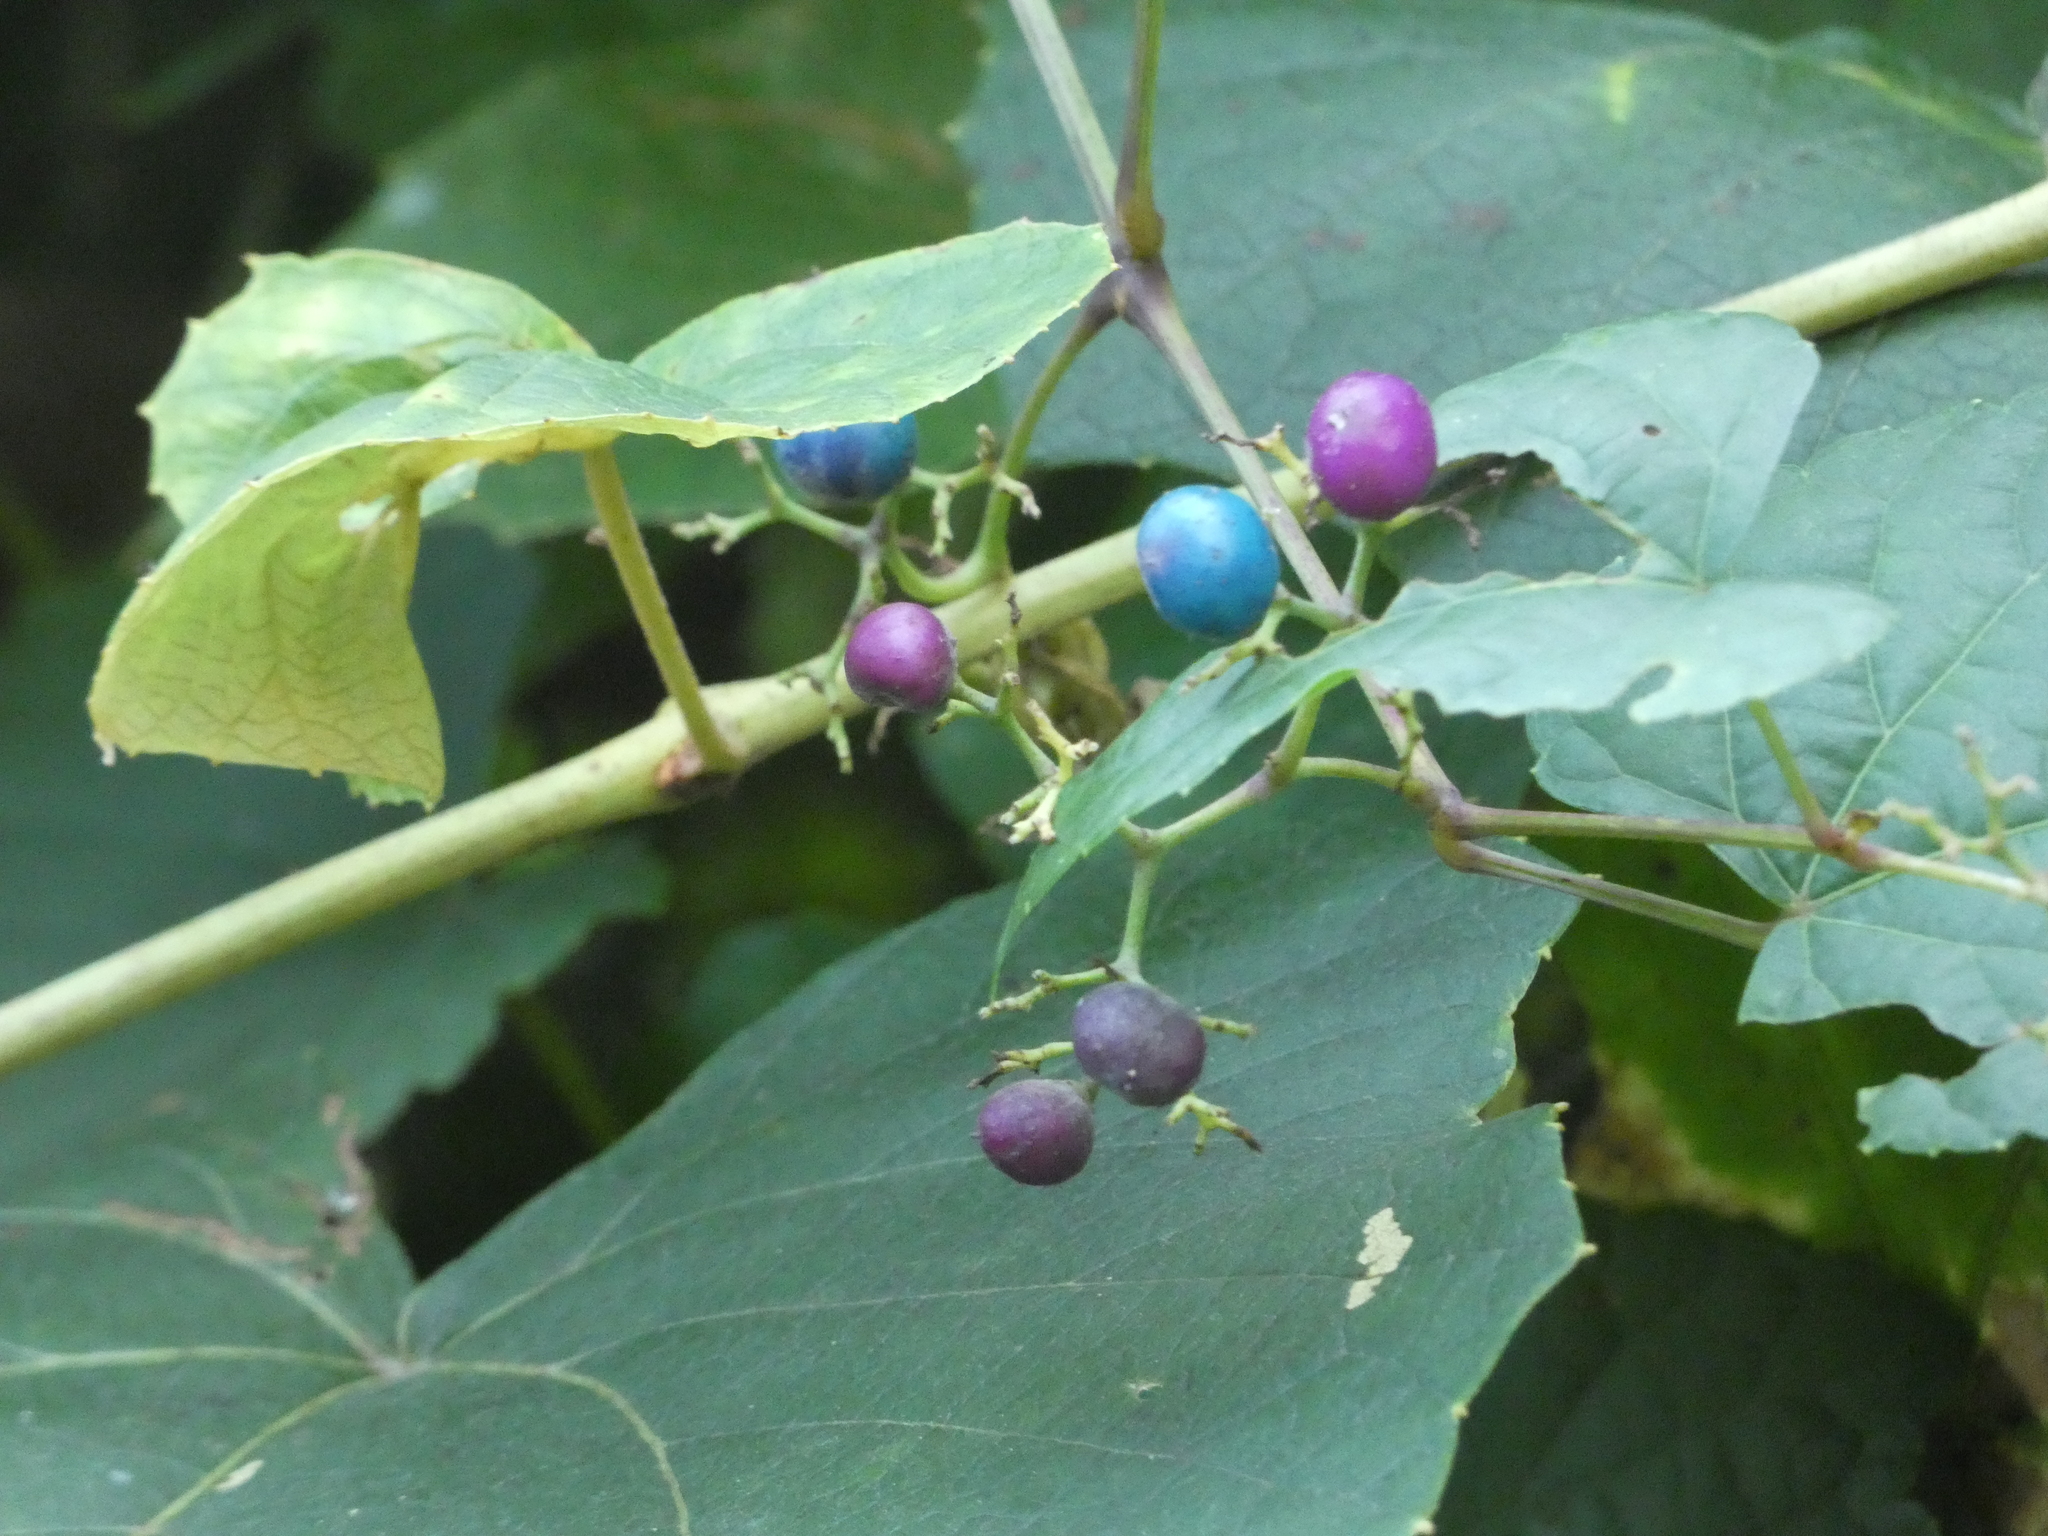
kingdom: Plantae
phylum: Tracheophyta
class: Magnoliopsida
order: Vitales
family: Vitaceae
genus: Ampelopsis
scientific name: Ampelopsis glandulosa
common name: Amur peppervine
